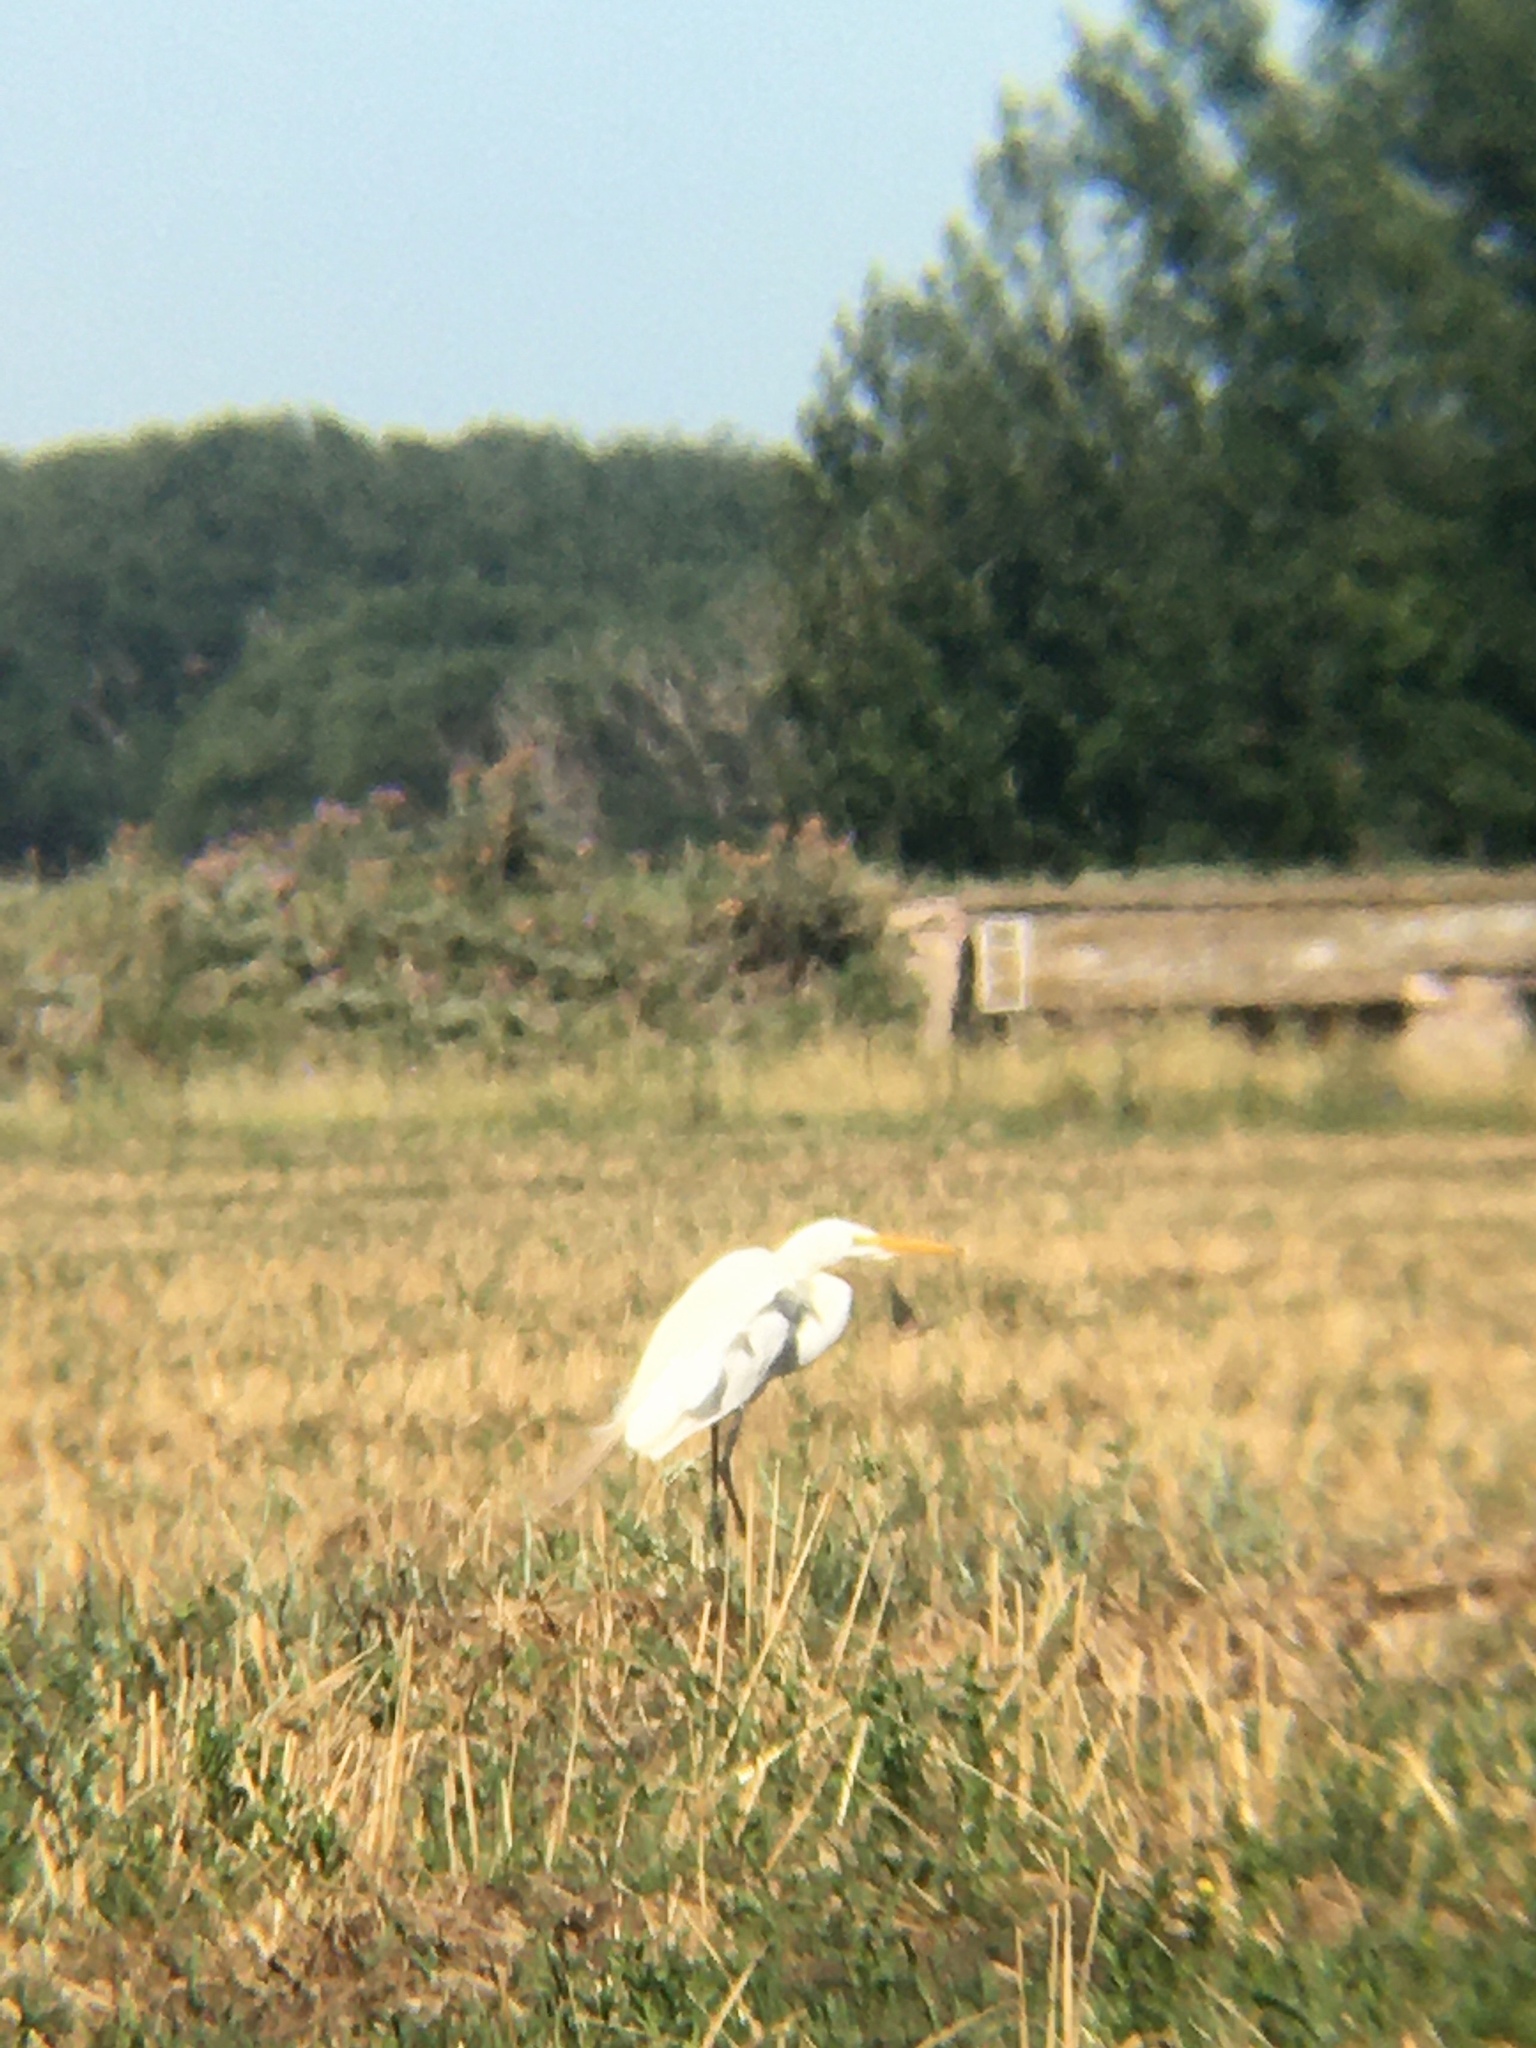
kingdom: Animalia
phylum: Chordata
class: Aves
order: Pelecaniformes
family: Ardeidae
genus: Ardea
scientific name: Ardea alba
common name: Great egret
